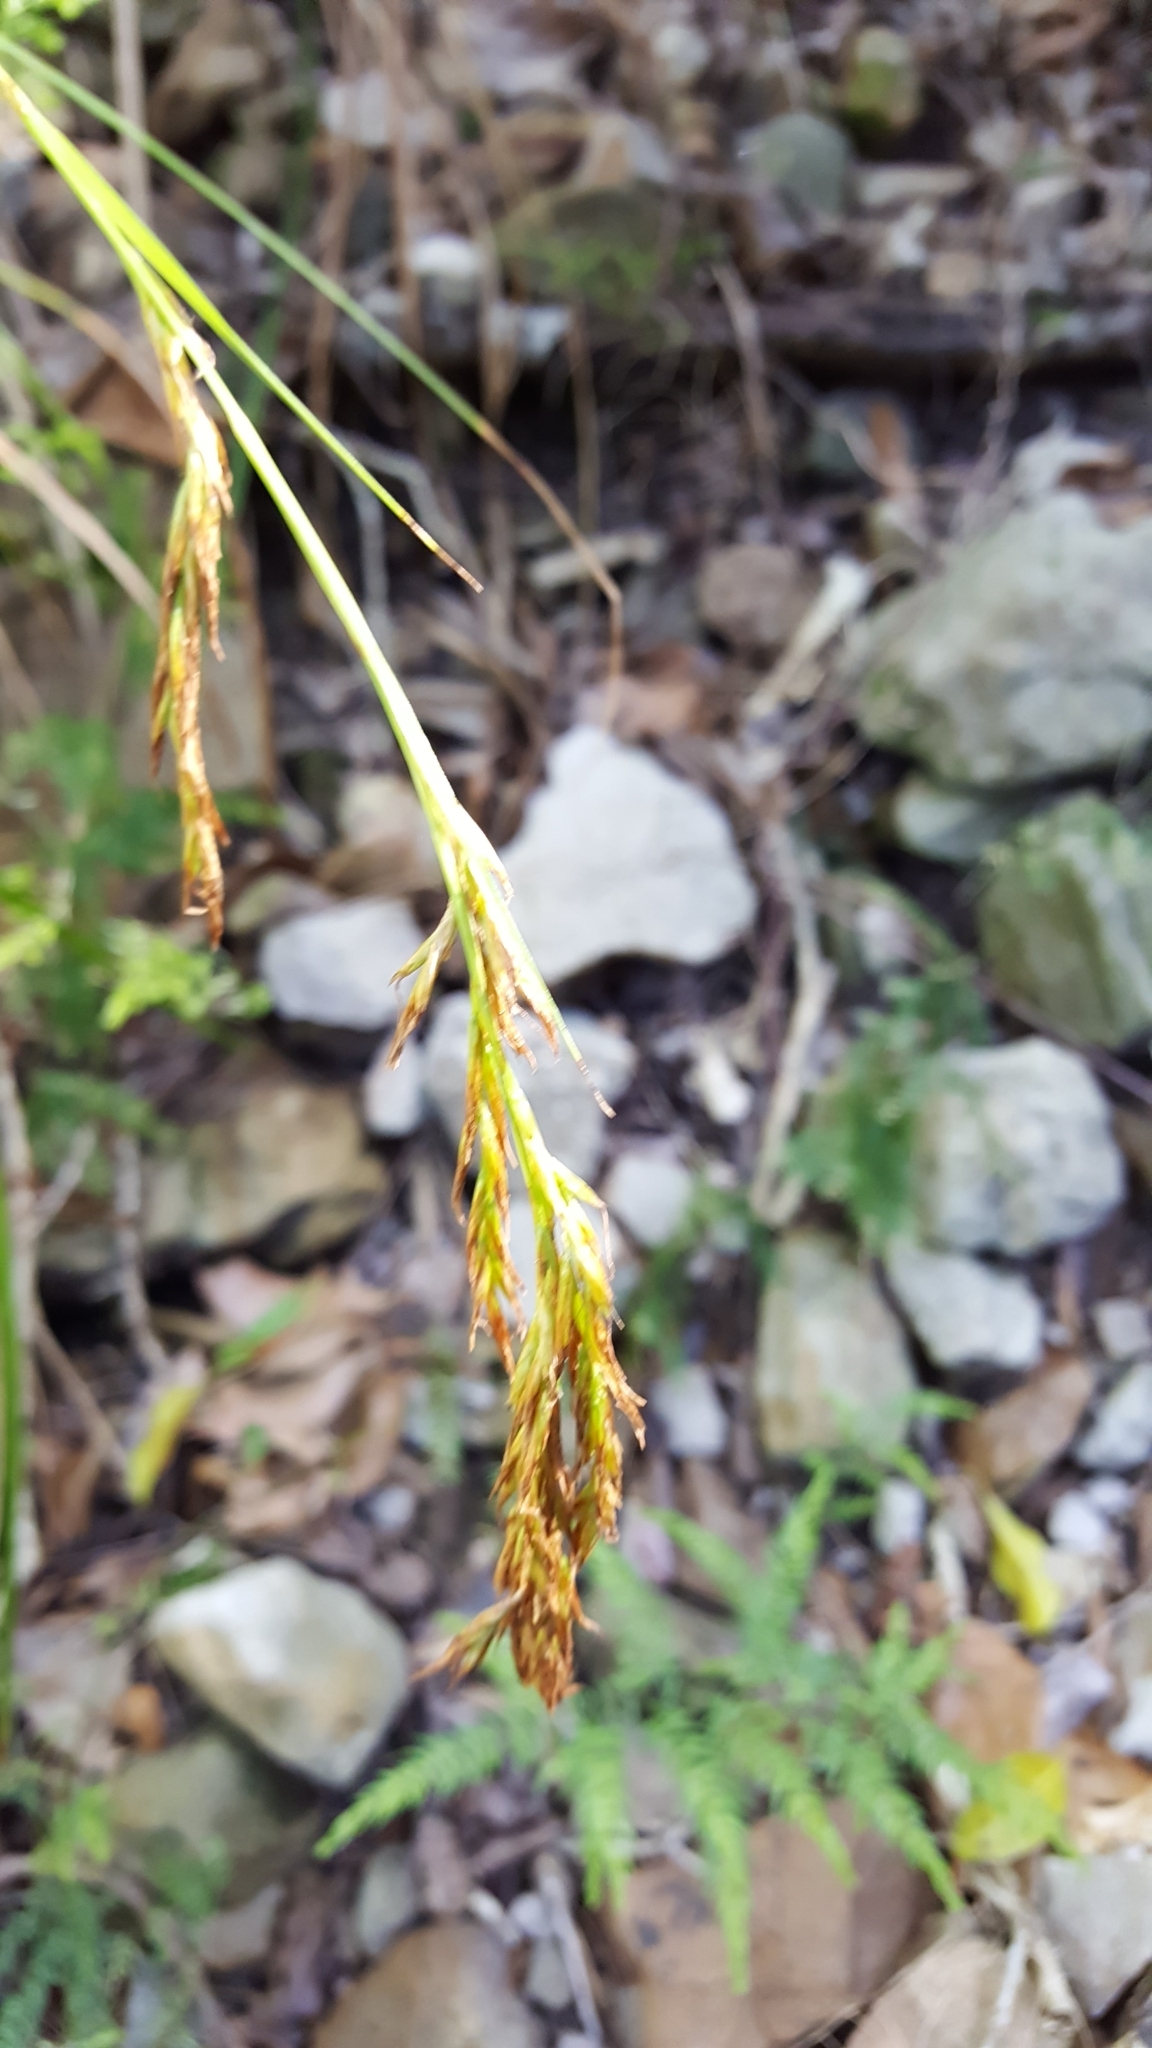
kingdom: Plantae
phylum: Tracheophyta
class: Liliopsida
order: Poales
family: Cyperaceae
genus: Carex
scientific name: Carex lancea
